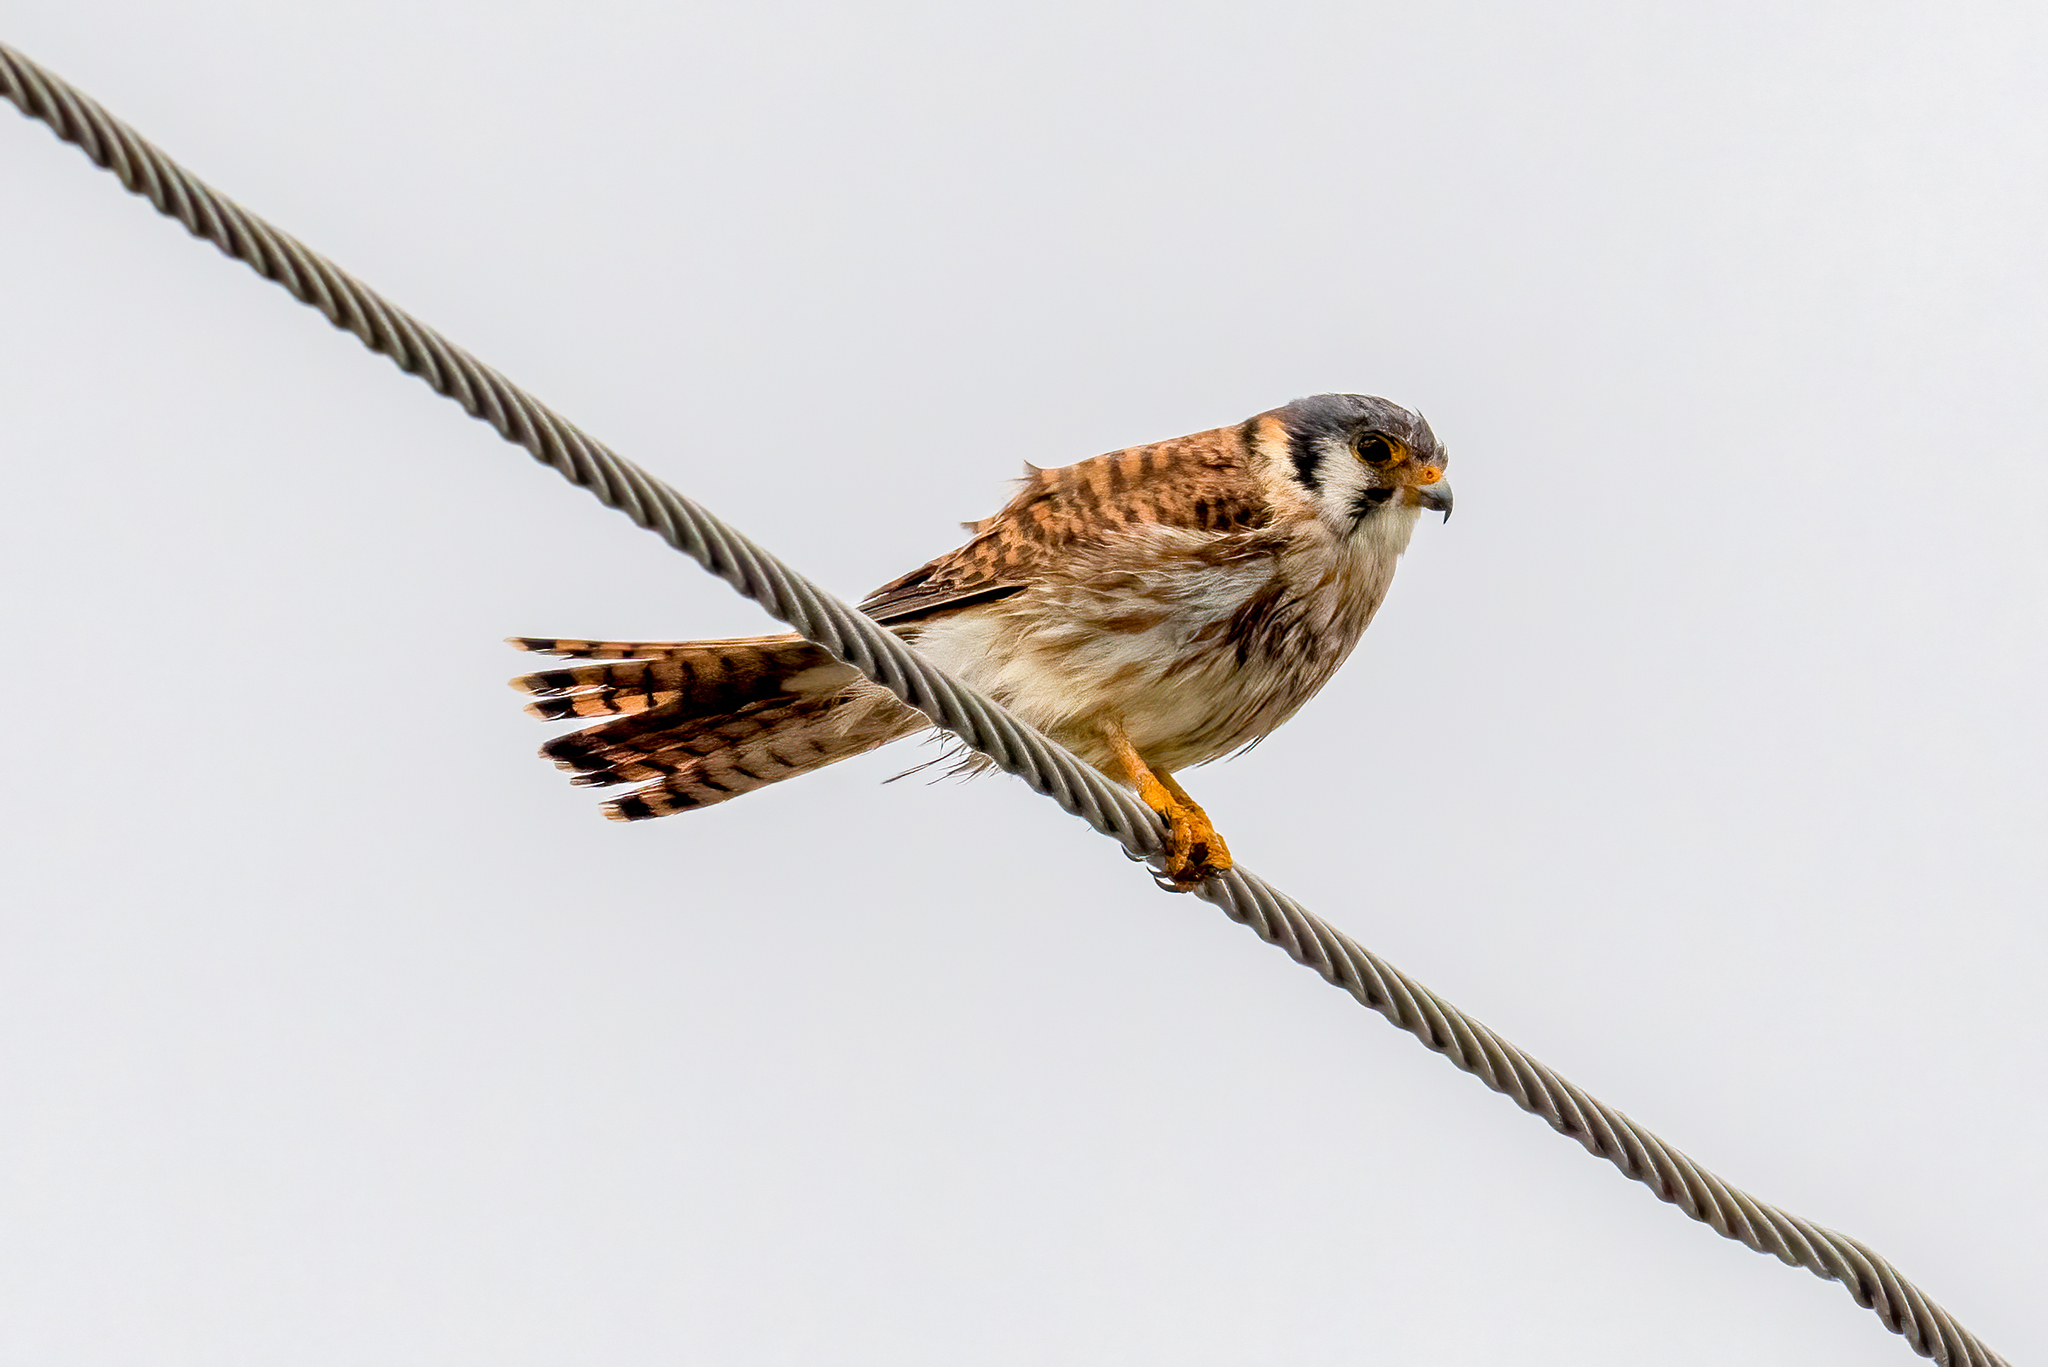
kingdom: Animalia
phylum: Chordata
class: Aves
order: Falconiformes
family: Falconidae
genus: Falco
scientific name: Falco sparverius
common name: American kestrel
